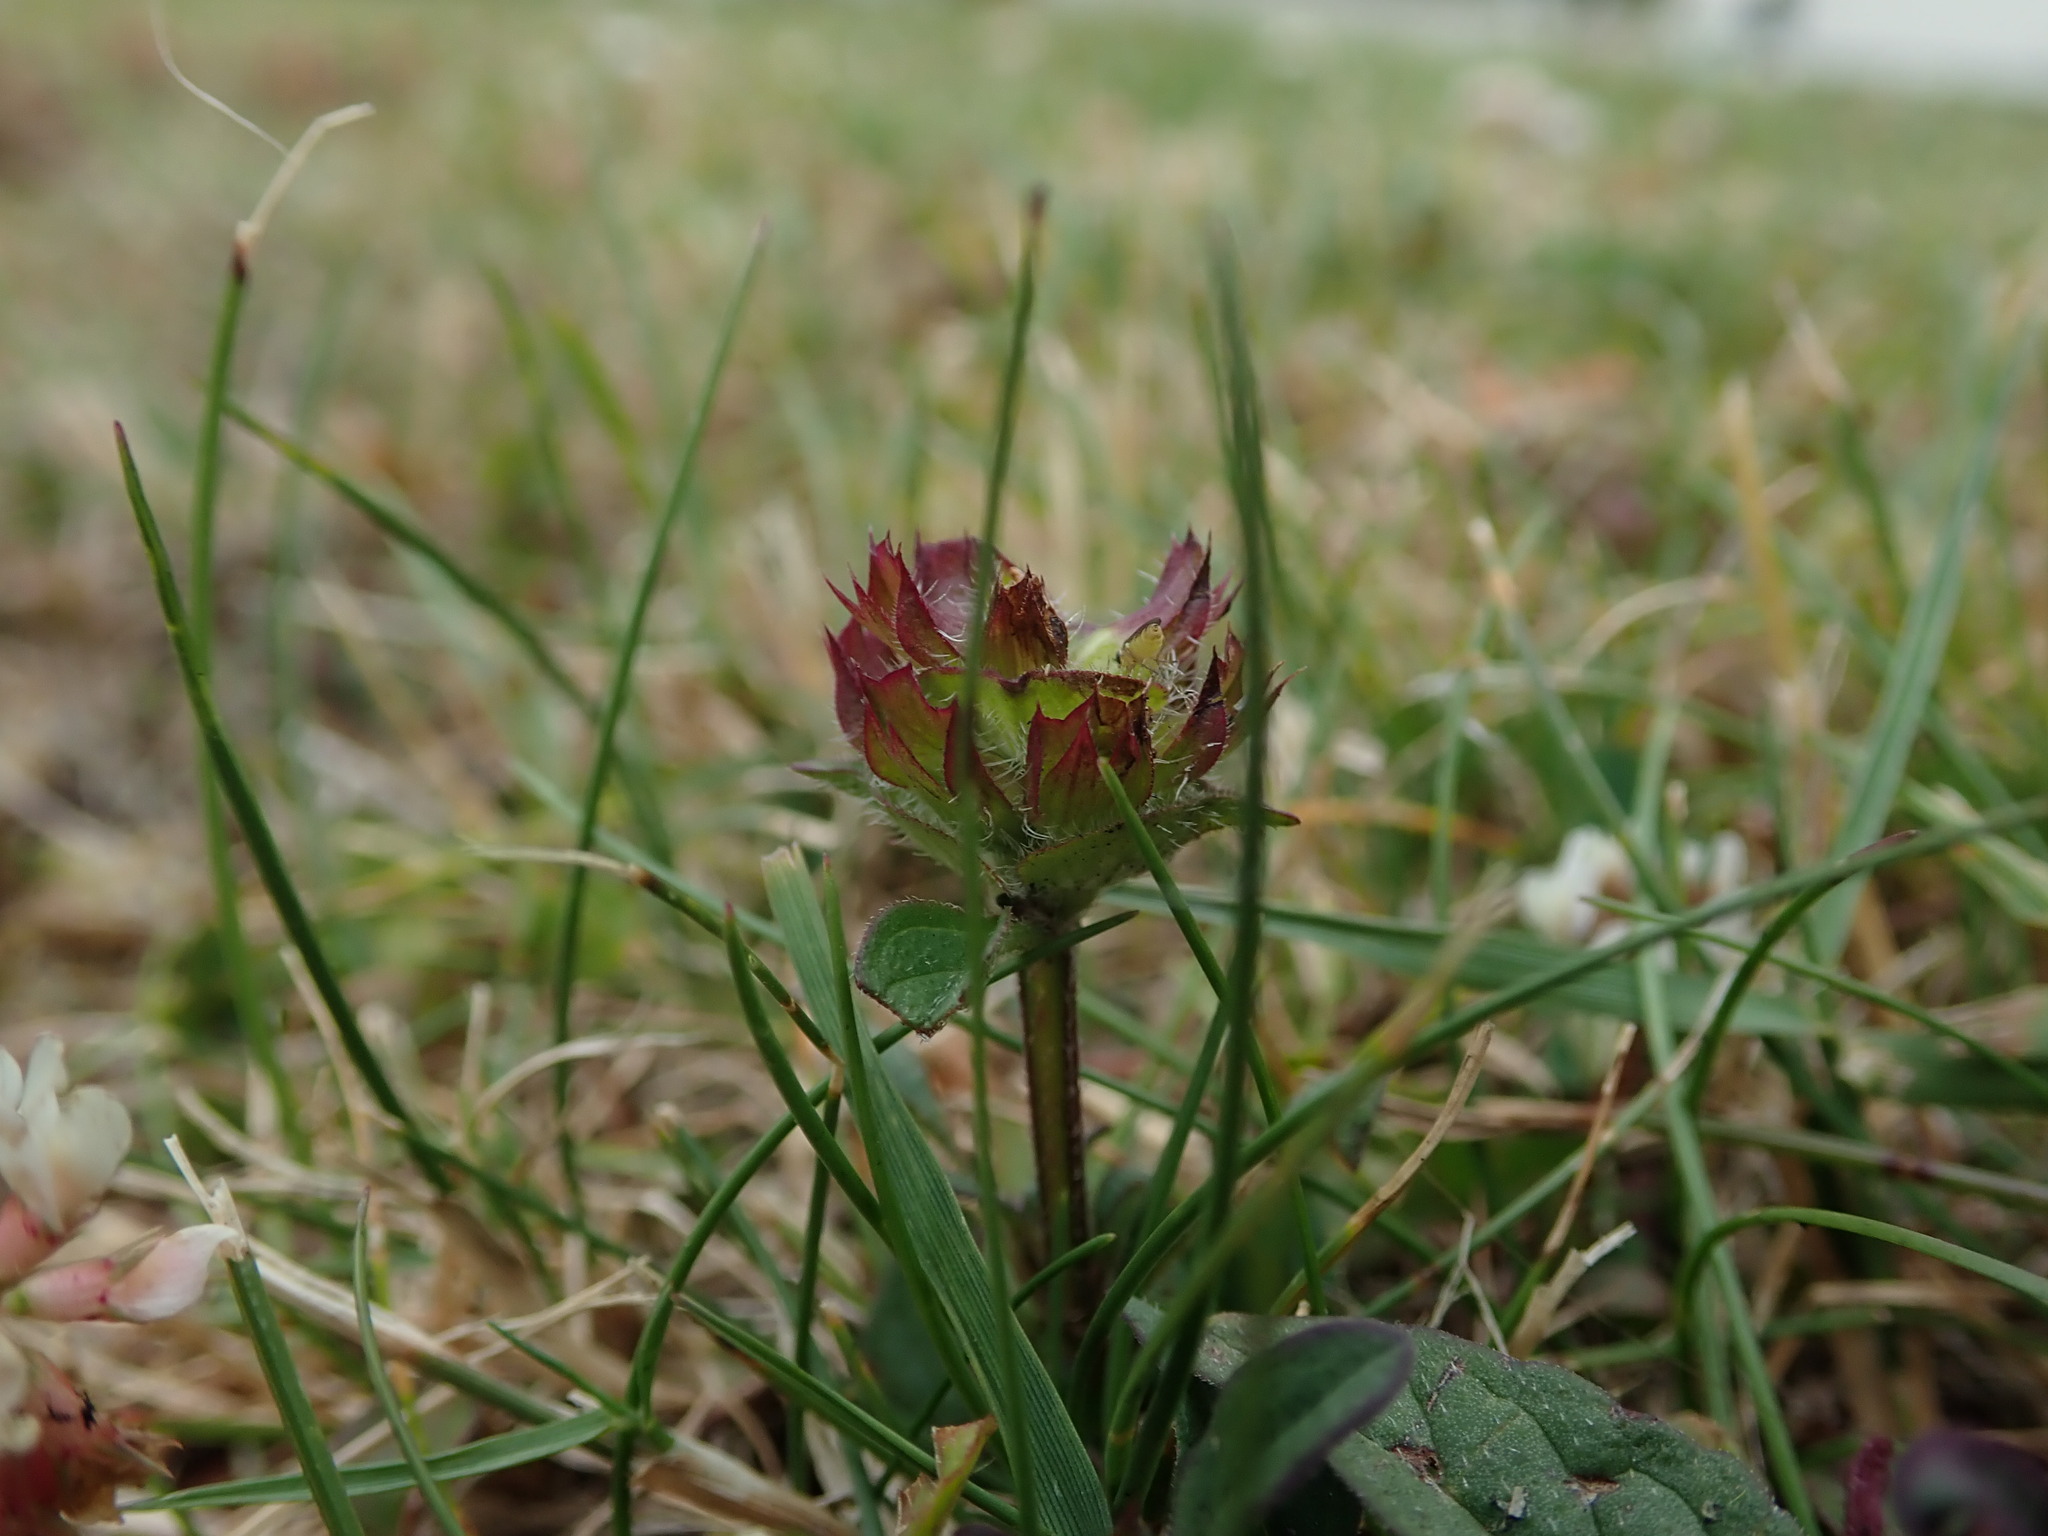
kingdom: Plantae
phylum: Tracheophyta
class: Magnoliopsida
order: Lamiales
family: Lamiaceae
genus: Prunella
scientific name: Prunella vulgaris
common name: Heal-all
